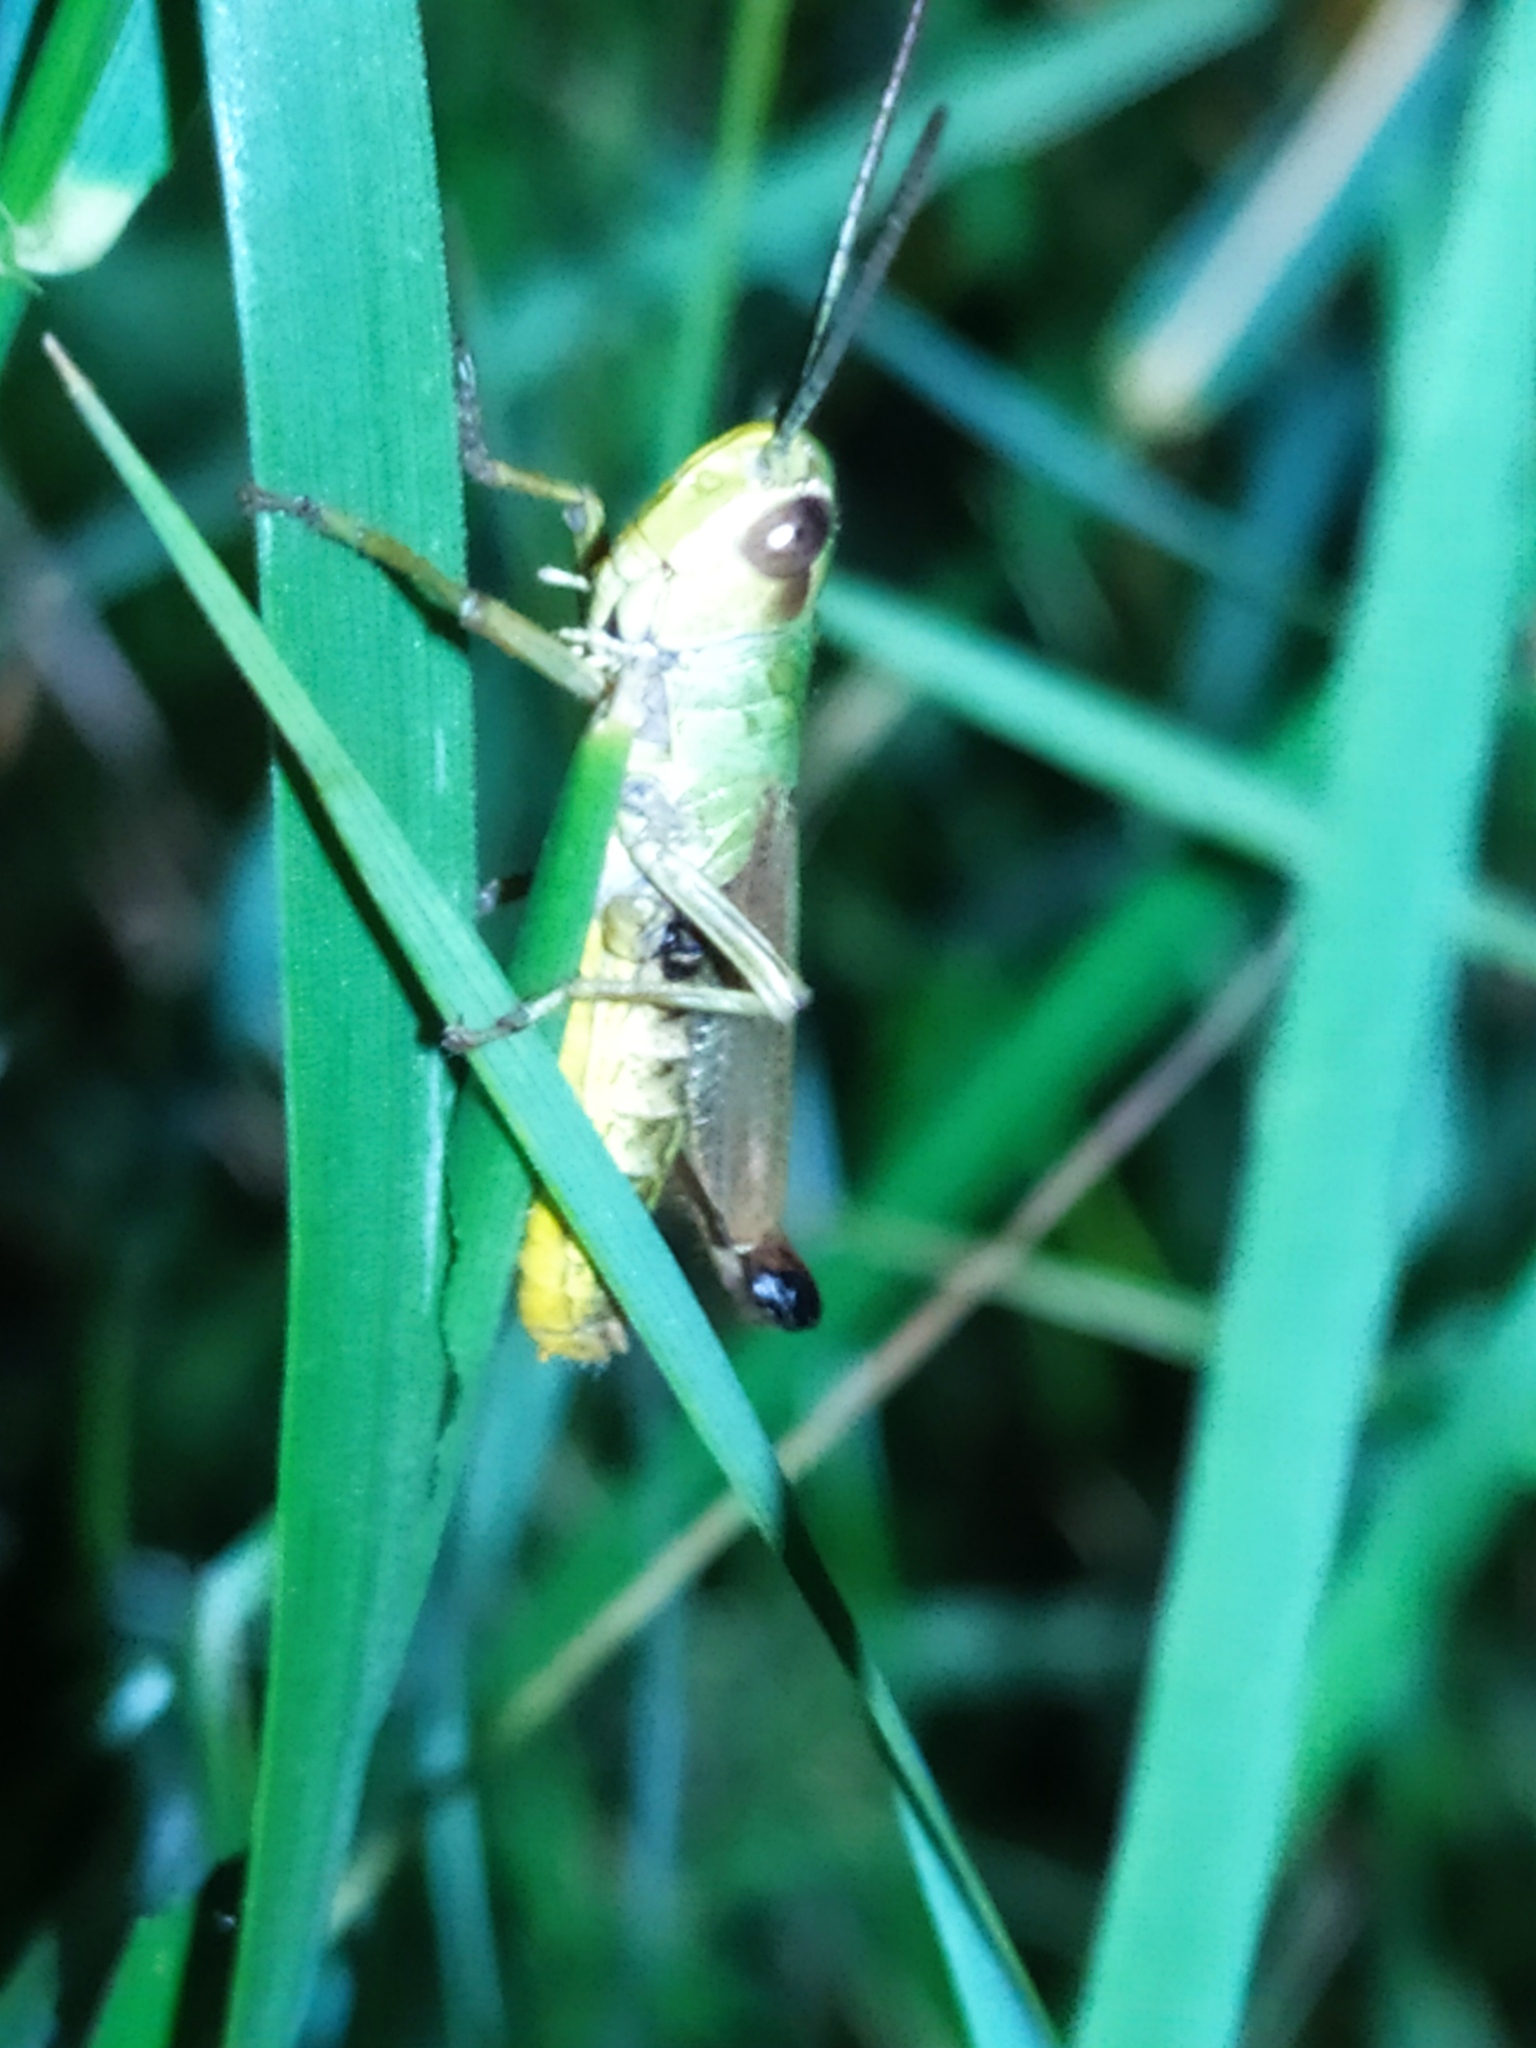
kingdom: Animalia
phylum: Arthropoda
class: Insecta
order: Orthoptera
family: Acrididae
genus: Pseudochorthippus
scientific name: Pseudochorthippus parallelus
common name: Meadow grasshopper
